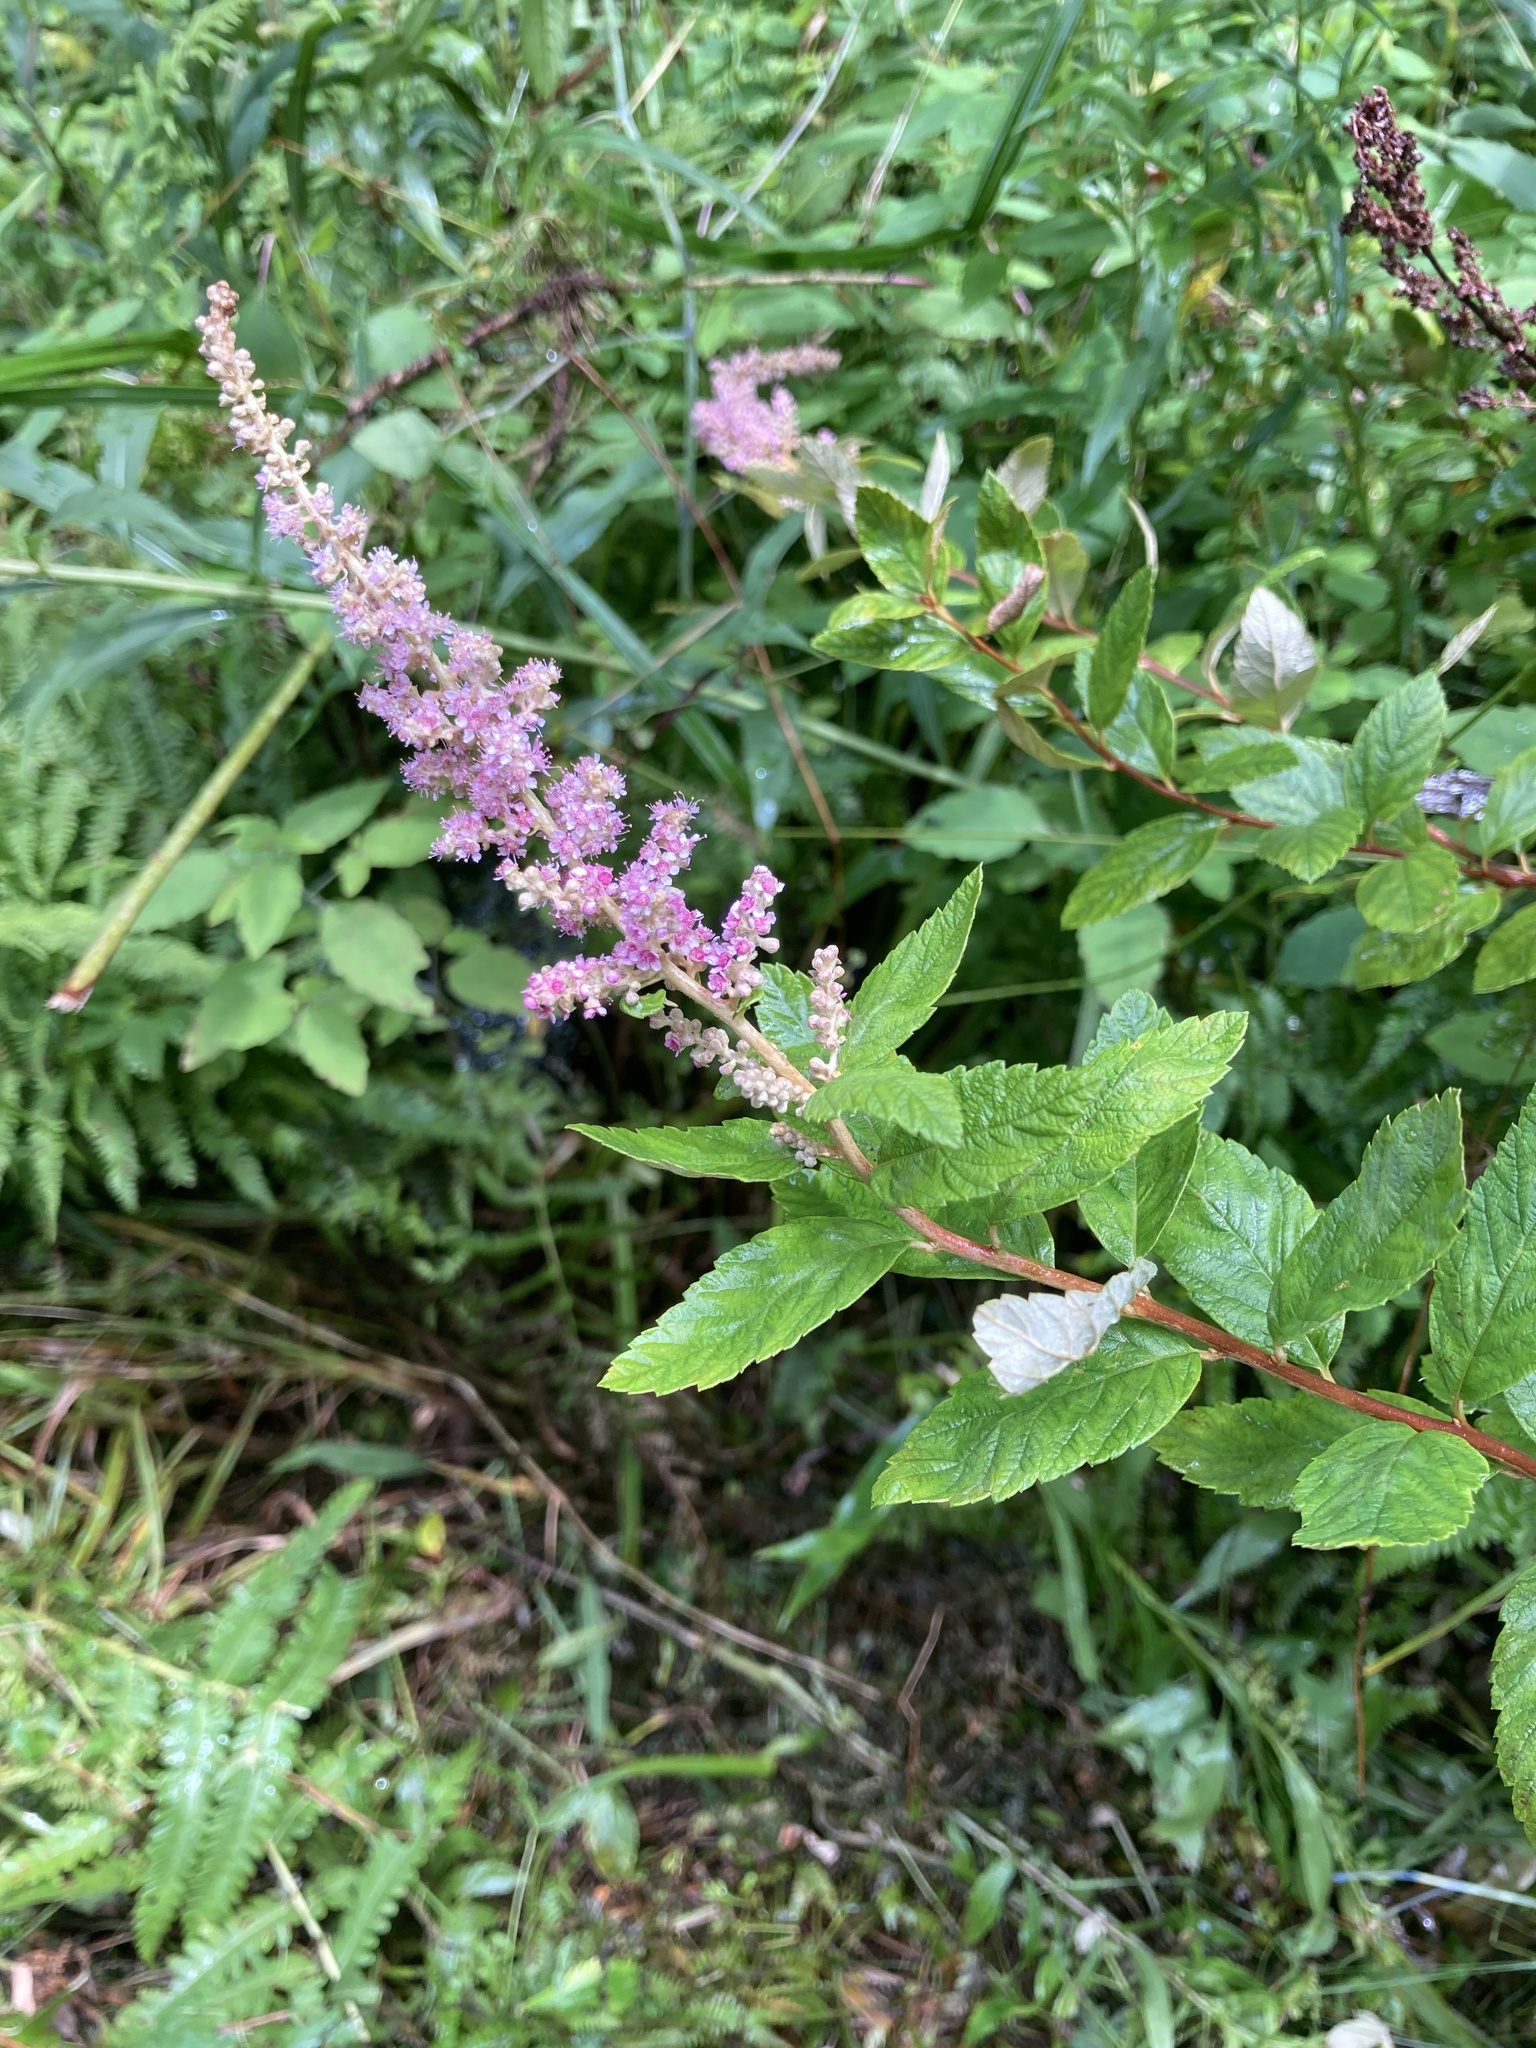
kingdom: Plantae
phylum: Tracheophyta
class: Magnoliopsida
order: Rosales
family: Rosaceae
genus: Spiraea
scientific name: Spiraea tomentosa
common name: Hardhack
